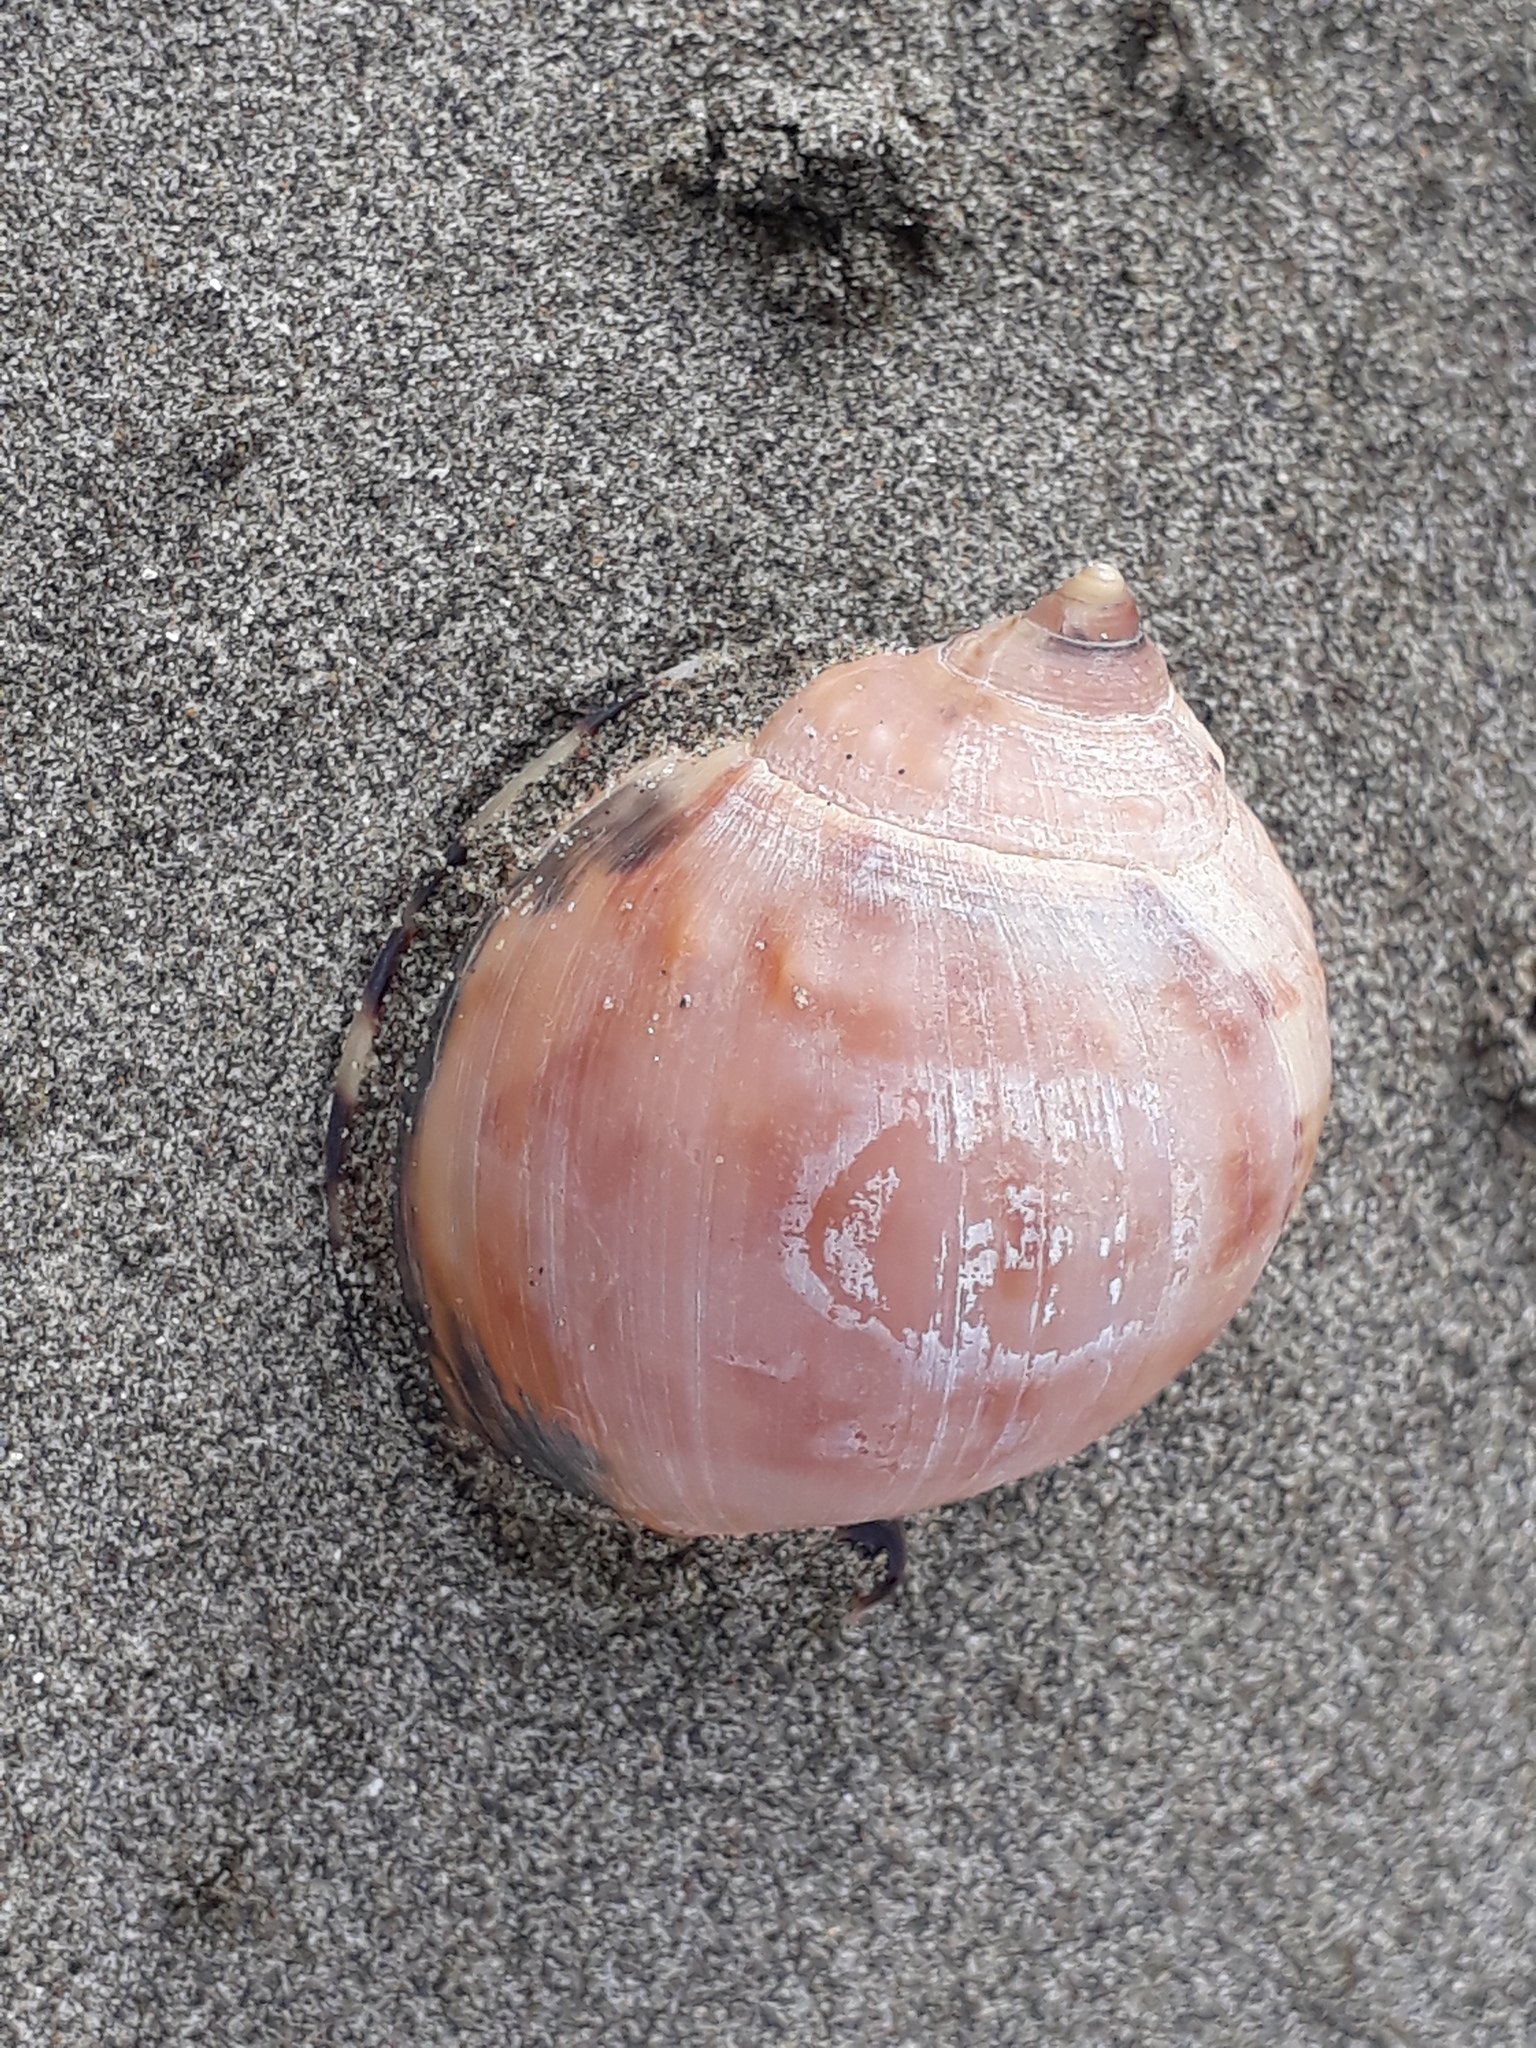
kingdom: Animalia
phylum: Mollusca
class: Gastropoda
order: Littorinimorpha
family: Cassidae
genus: Semicassis
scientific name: Semicassis pyrum
